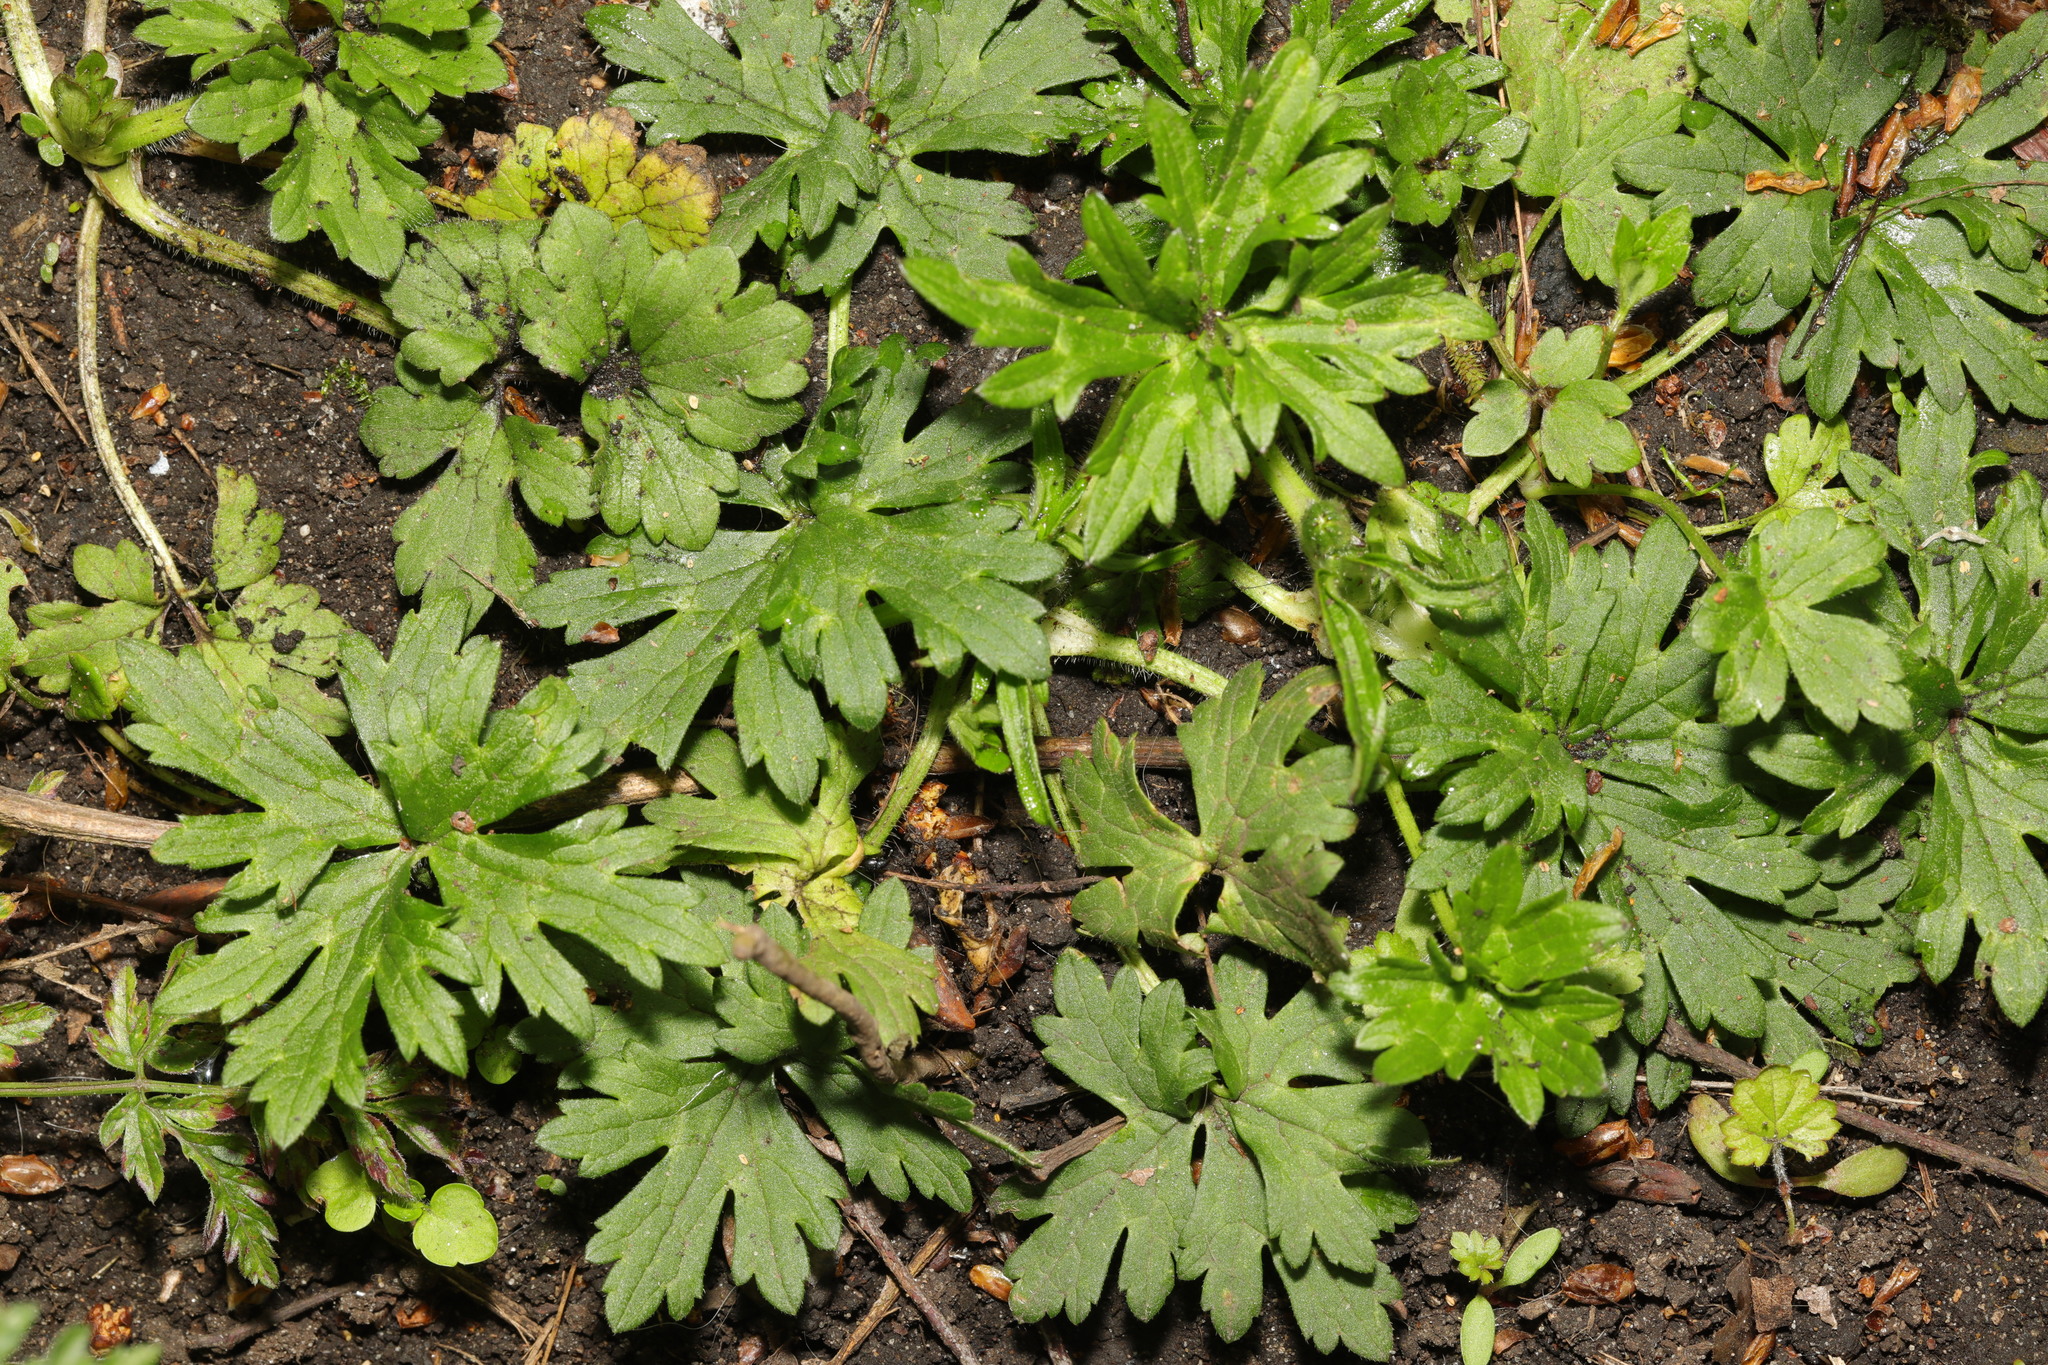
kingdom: Plantae
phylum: Tracheophyta
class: Magnoliopsida
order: Ranunculales
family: Ranunculaceae
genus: Ranunculus
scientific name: Ranunculus repens
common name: Creeping buttercup
